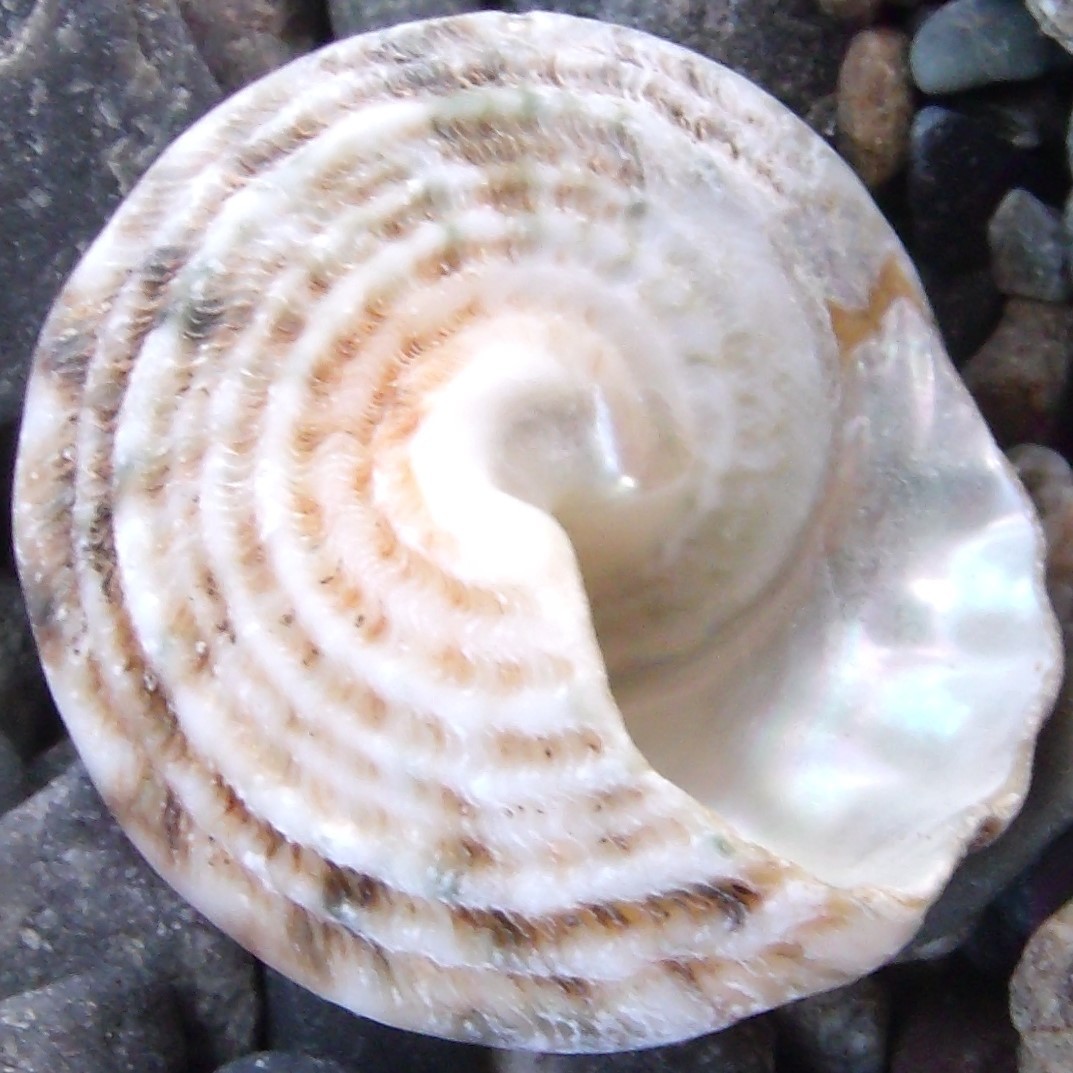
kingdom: Animalia
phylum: Mollusca
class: Gastropoda
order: Trochida
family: Turbinidae
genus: Cookia
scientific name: Cookia sulcata
